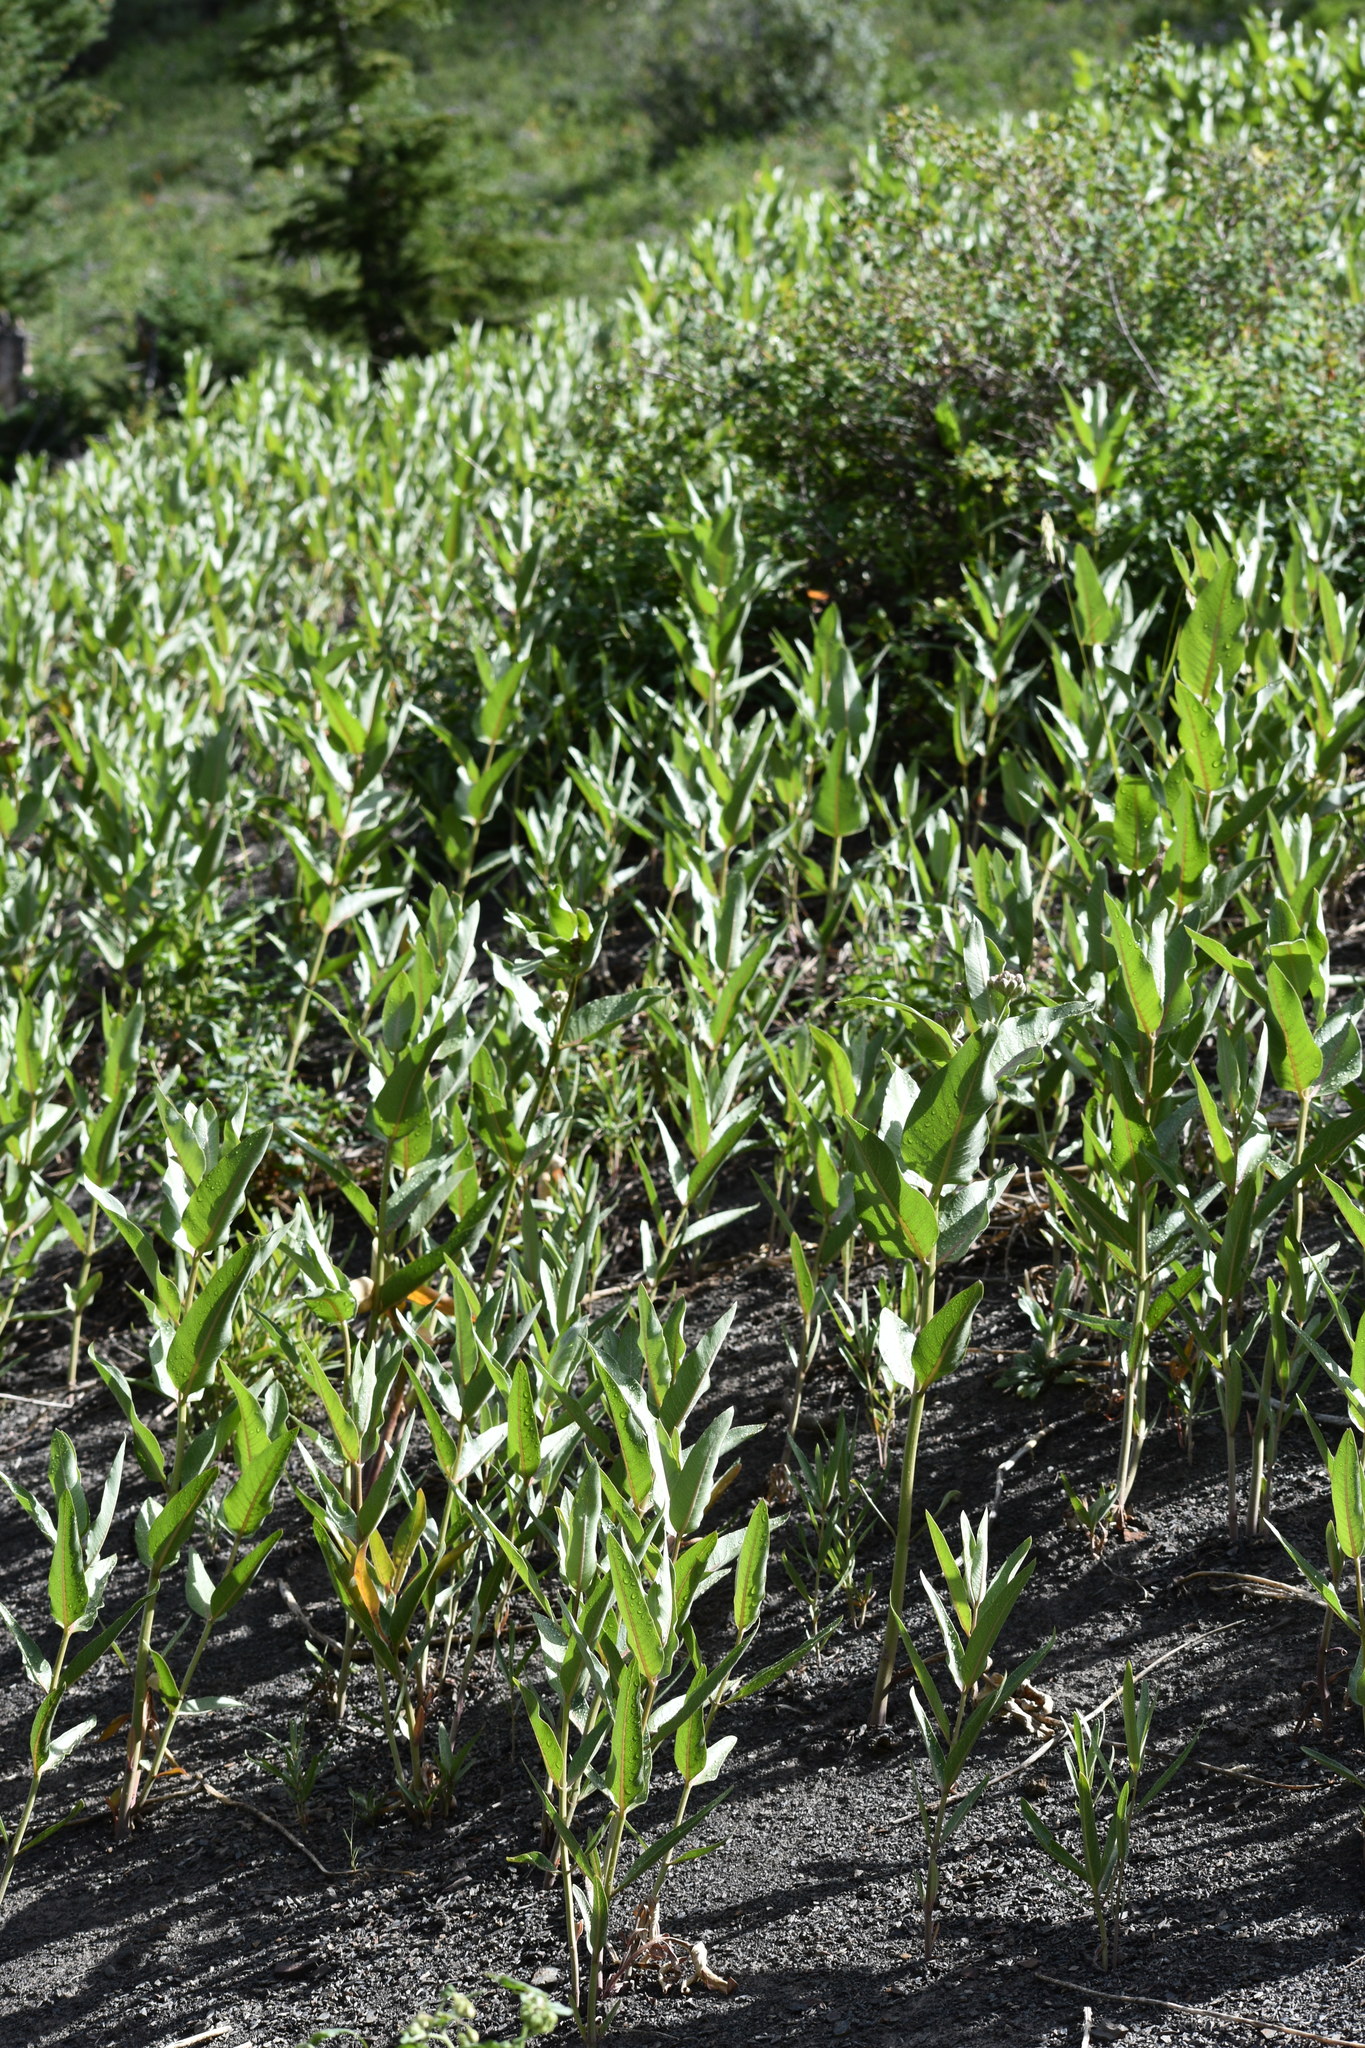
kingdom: Plantae
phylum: Tracheophyta
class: Magnoliopsida
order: Gentianales
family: Apocynaceae
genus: Asclepias
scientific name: Asclepias speciosa
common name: Showy milkweed
